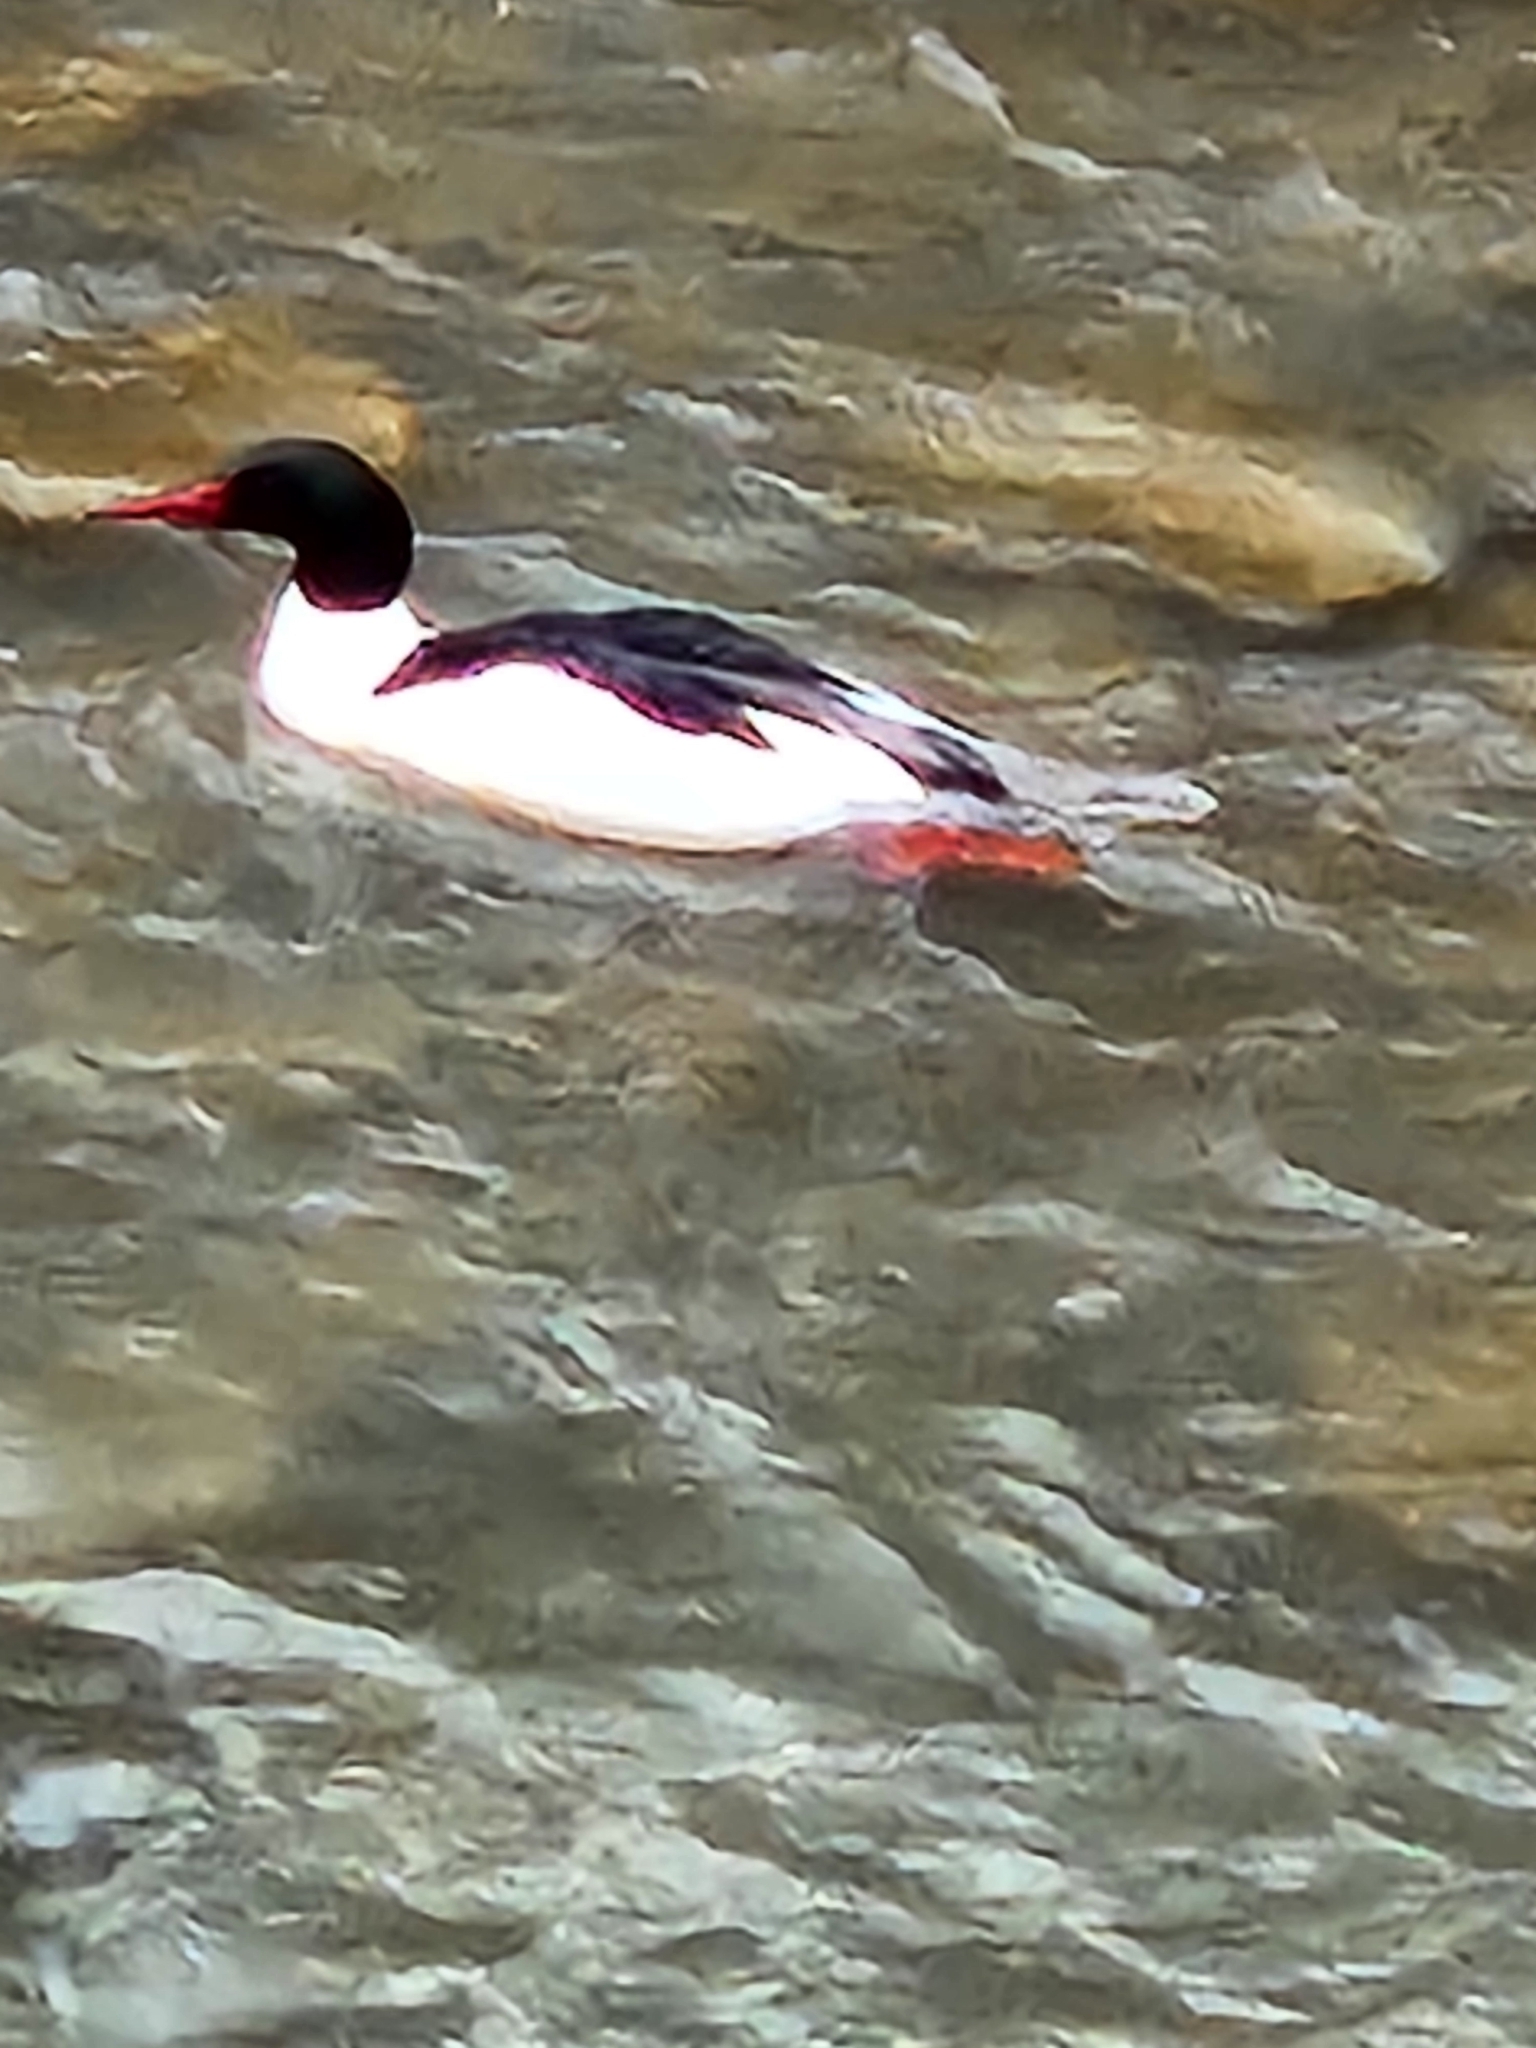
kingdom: Animalia
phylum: Chordata
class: Aves
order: Anseriformes
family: Anatidae
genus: Mergus
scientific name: Mergus merganser
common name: Common merganser
